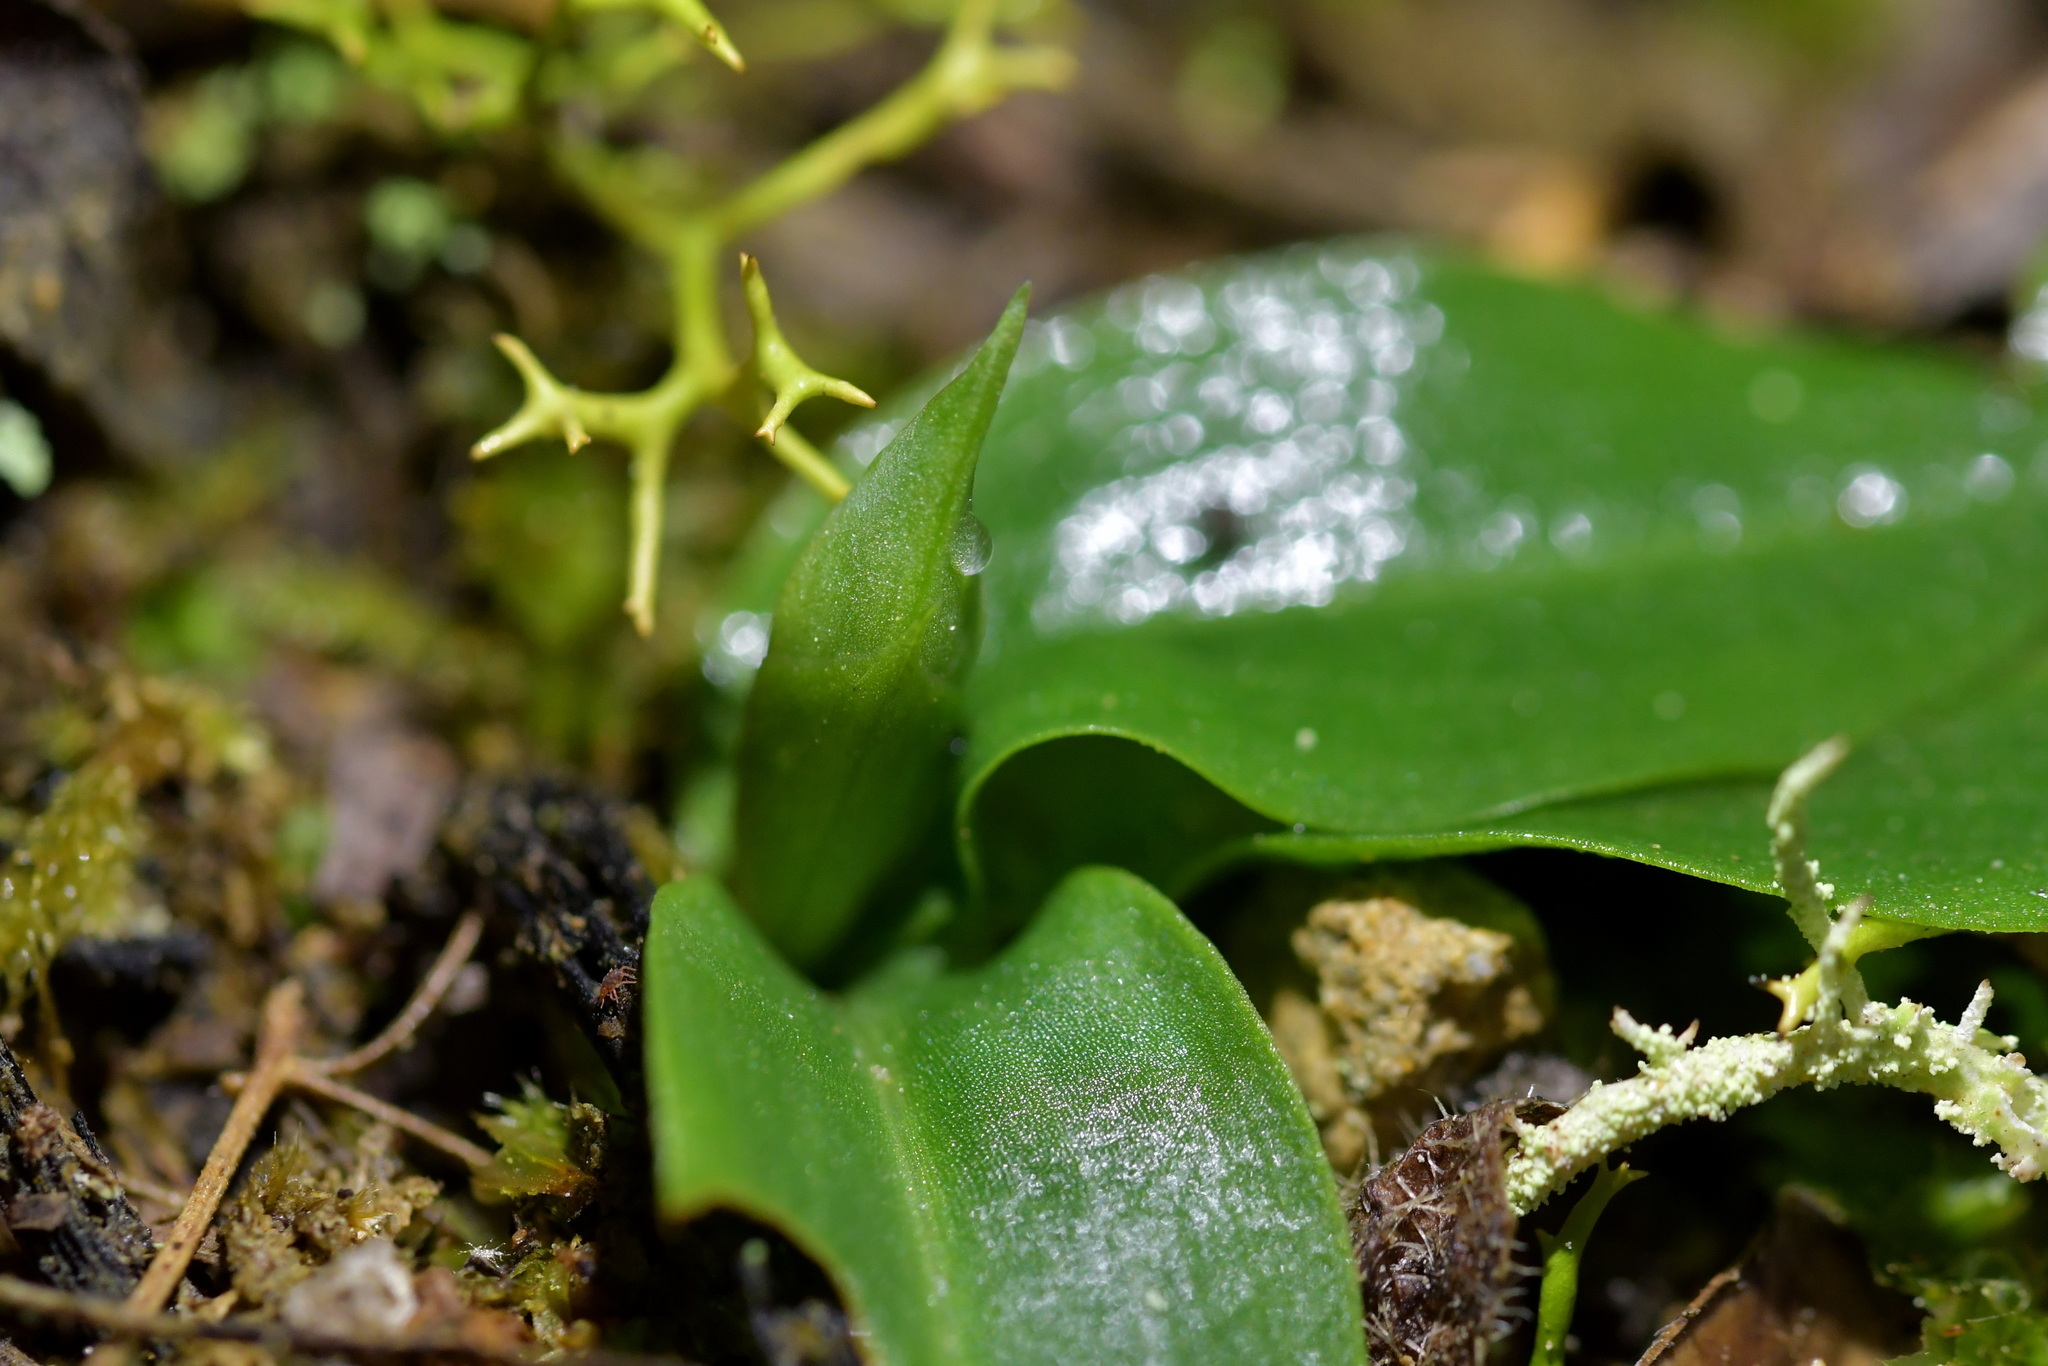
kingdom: Plantae
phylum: Tracheophyta
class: Liliopsida
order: Asparagales
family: Orchidaceae
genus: Chiloglottis
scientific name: Chiloglottis cornuta
